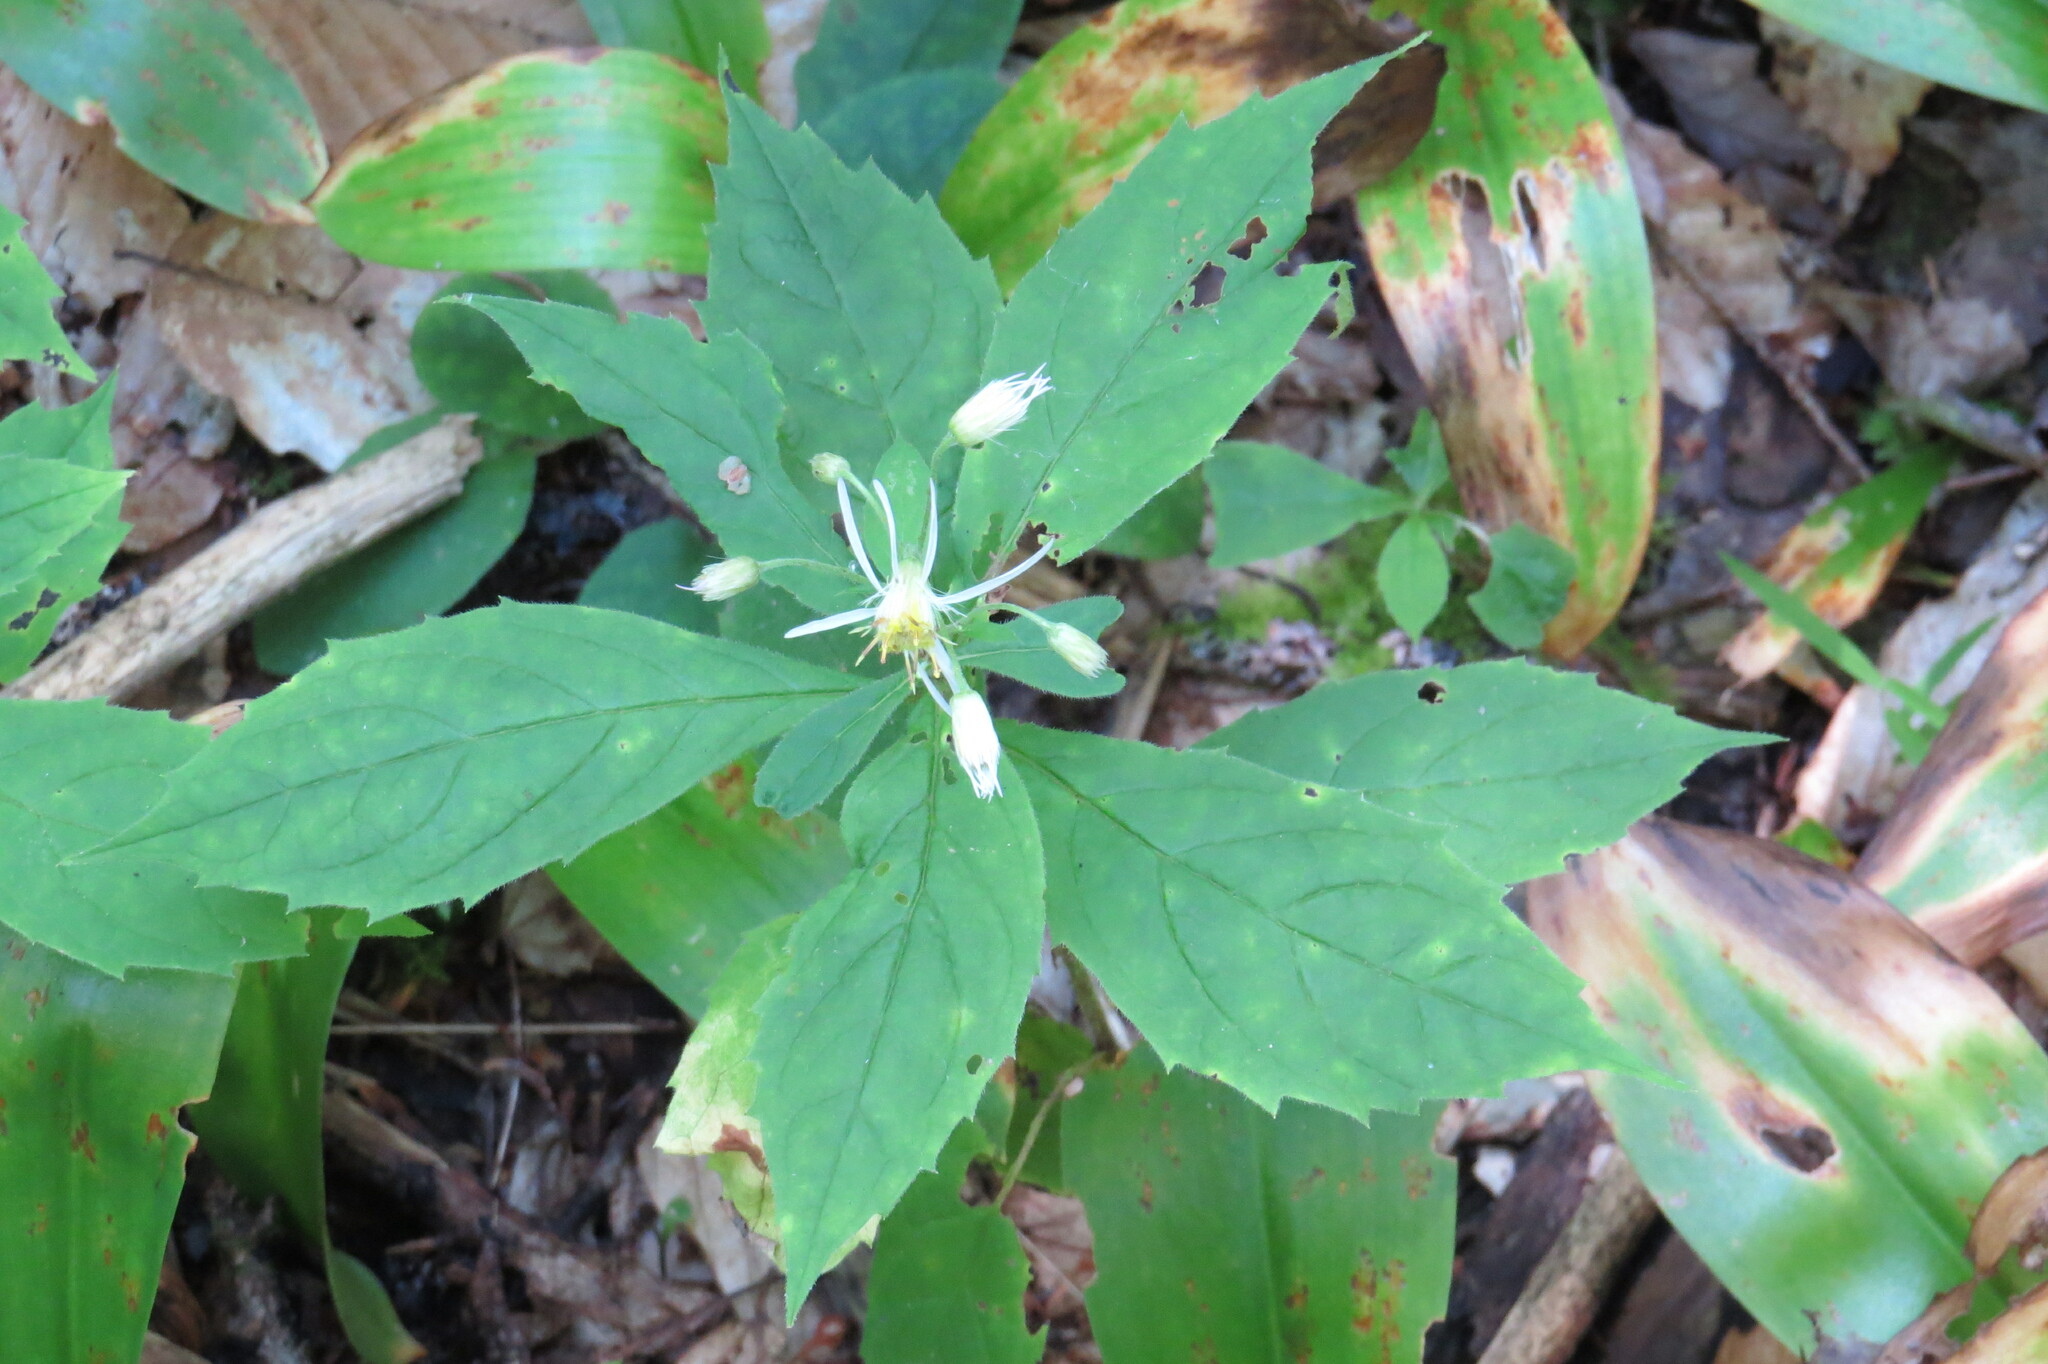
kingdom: Plantae
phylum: Tracheophyta
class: Magnoliopsida
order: Asterales
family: Asteraceae
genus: Oclemena
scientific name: Oclemena acuminata
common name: Mountain aster
